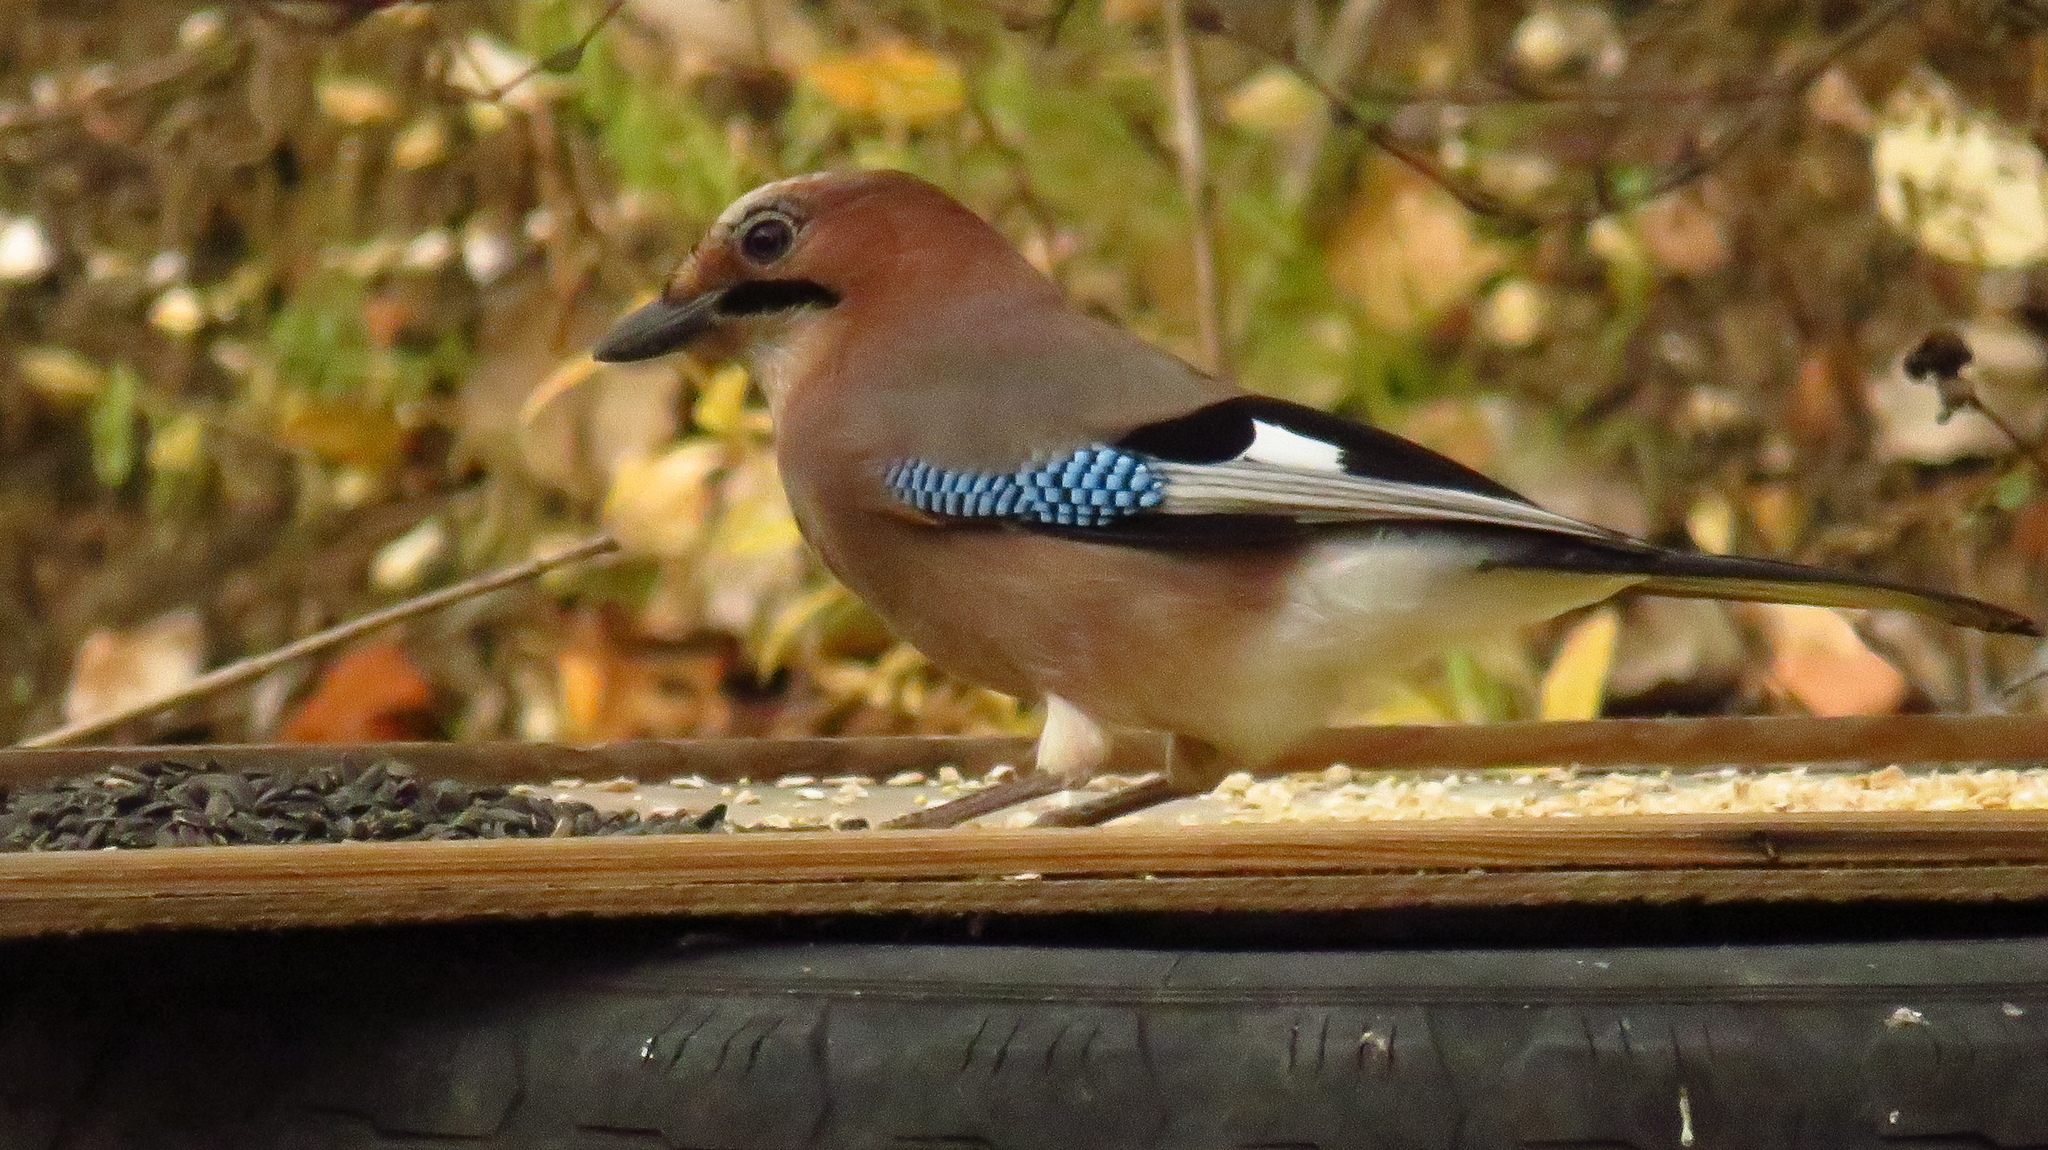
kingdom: Animalia
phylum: Chordata
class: Aves
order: Passeriformes
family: Corvidae
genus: Garrulus
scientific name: Garrulus glandarius
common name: Eurasian jay
